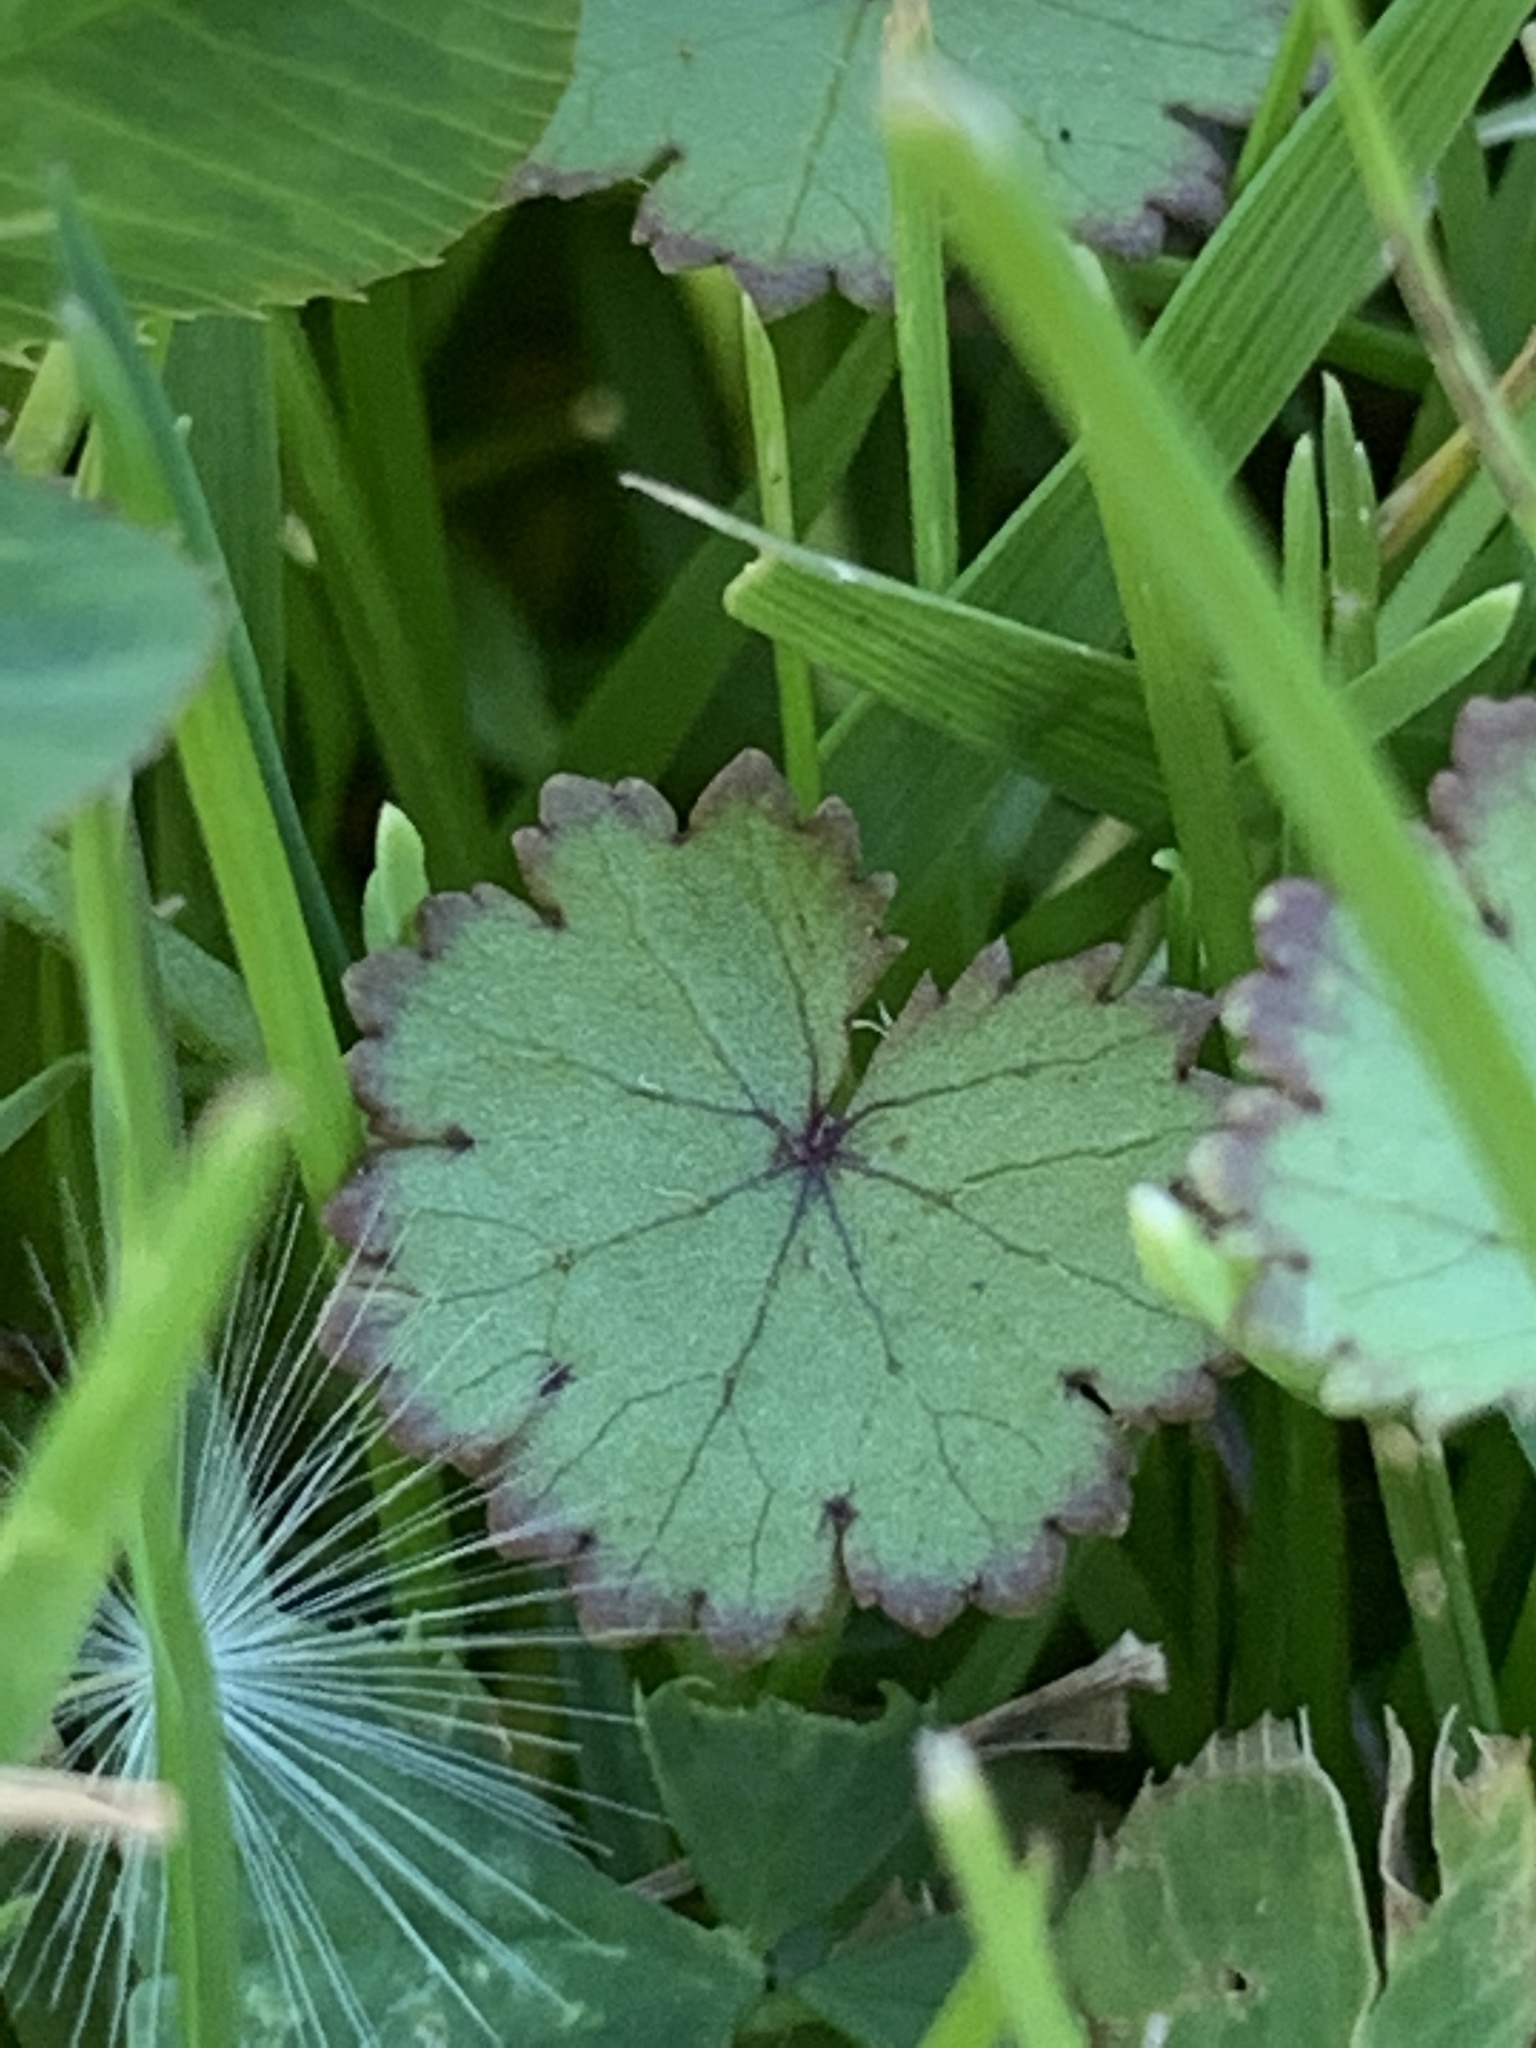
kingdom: Plantae
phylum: Tracheophyta
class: Magnoliopsida
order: Apiales
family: Araliaceae
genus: Hydrocotyle
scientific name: Hydrocotyle moschata
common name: Hairy pennywort
